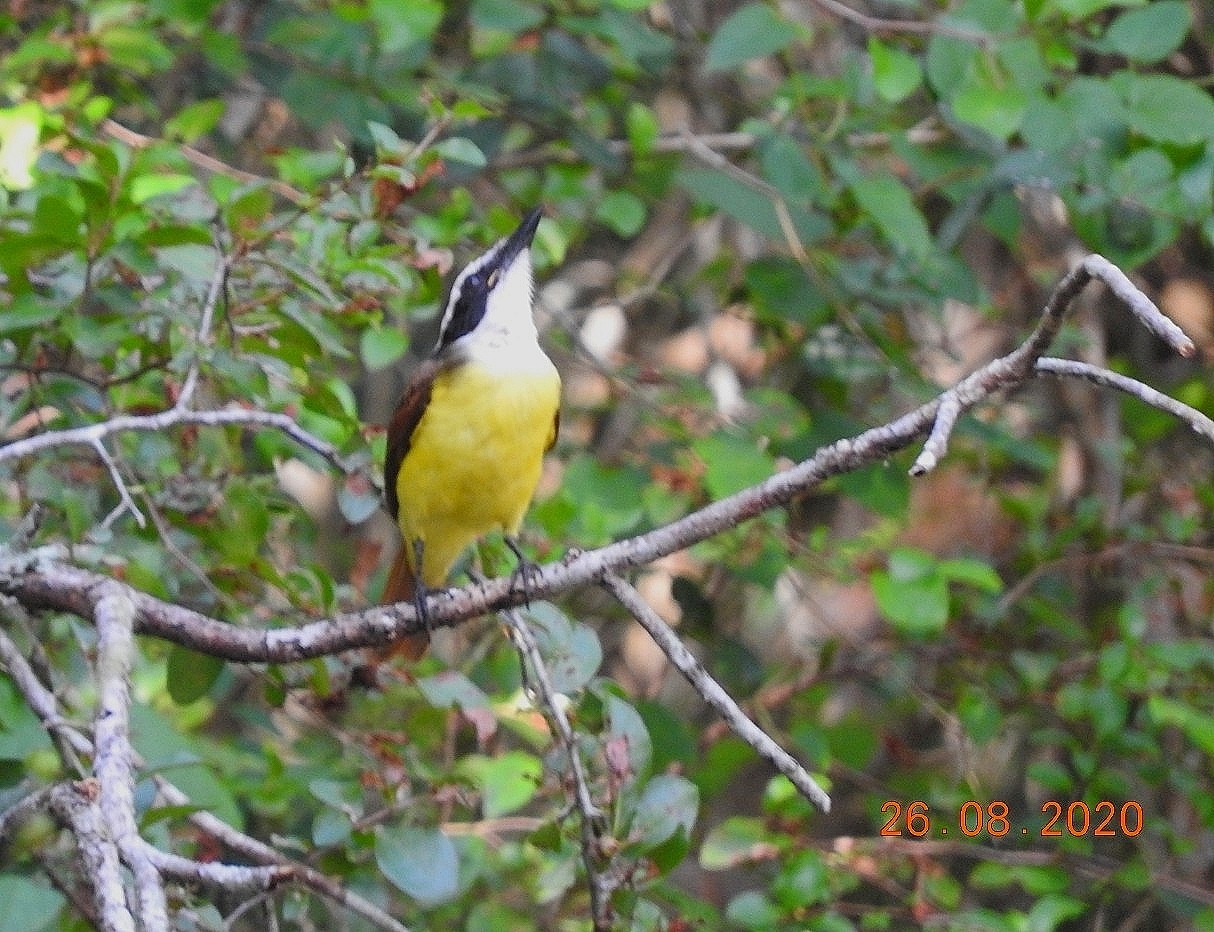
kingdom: Animalia
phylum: Chordata
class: Aves
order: Passeriformes
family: Tyrannidae
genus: Pitangus
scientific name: Pitangus sulphuratus
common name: Great kiskadee
